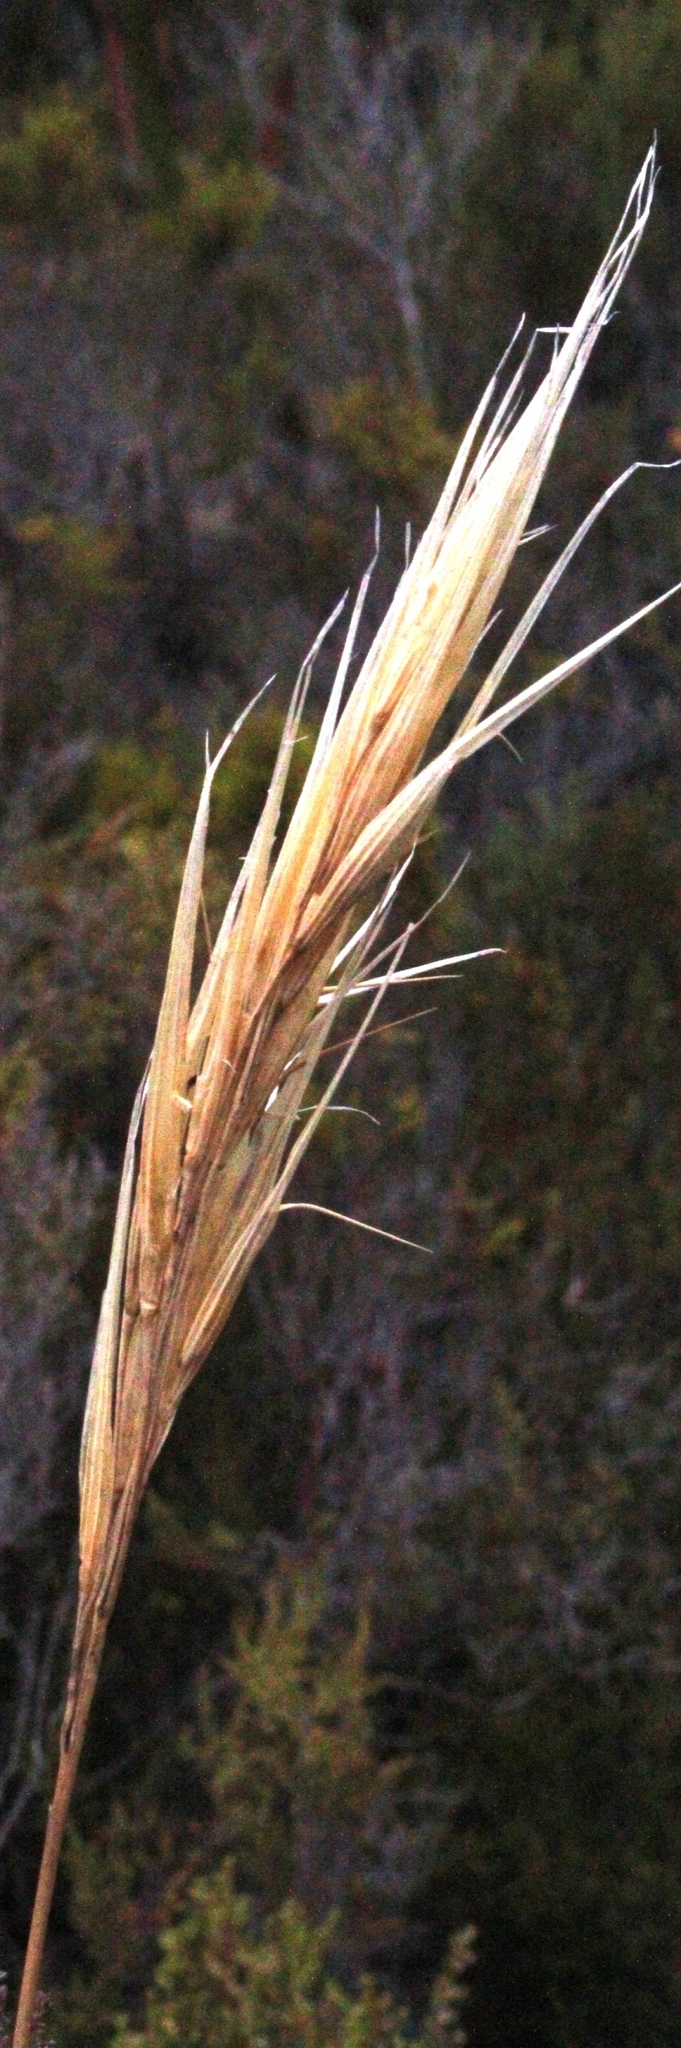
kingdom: Plantae
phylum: Tracheophyta
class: Liliopsida
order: Poales
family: Poaceae
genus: Pseudopentameris
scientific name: Pseudopentameris macrantha
